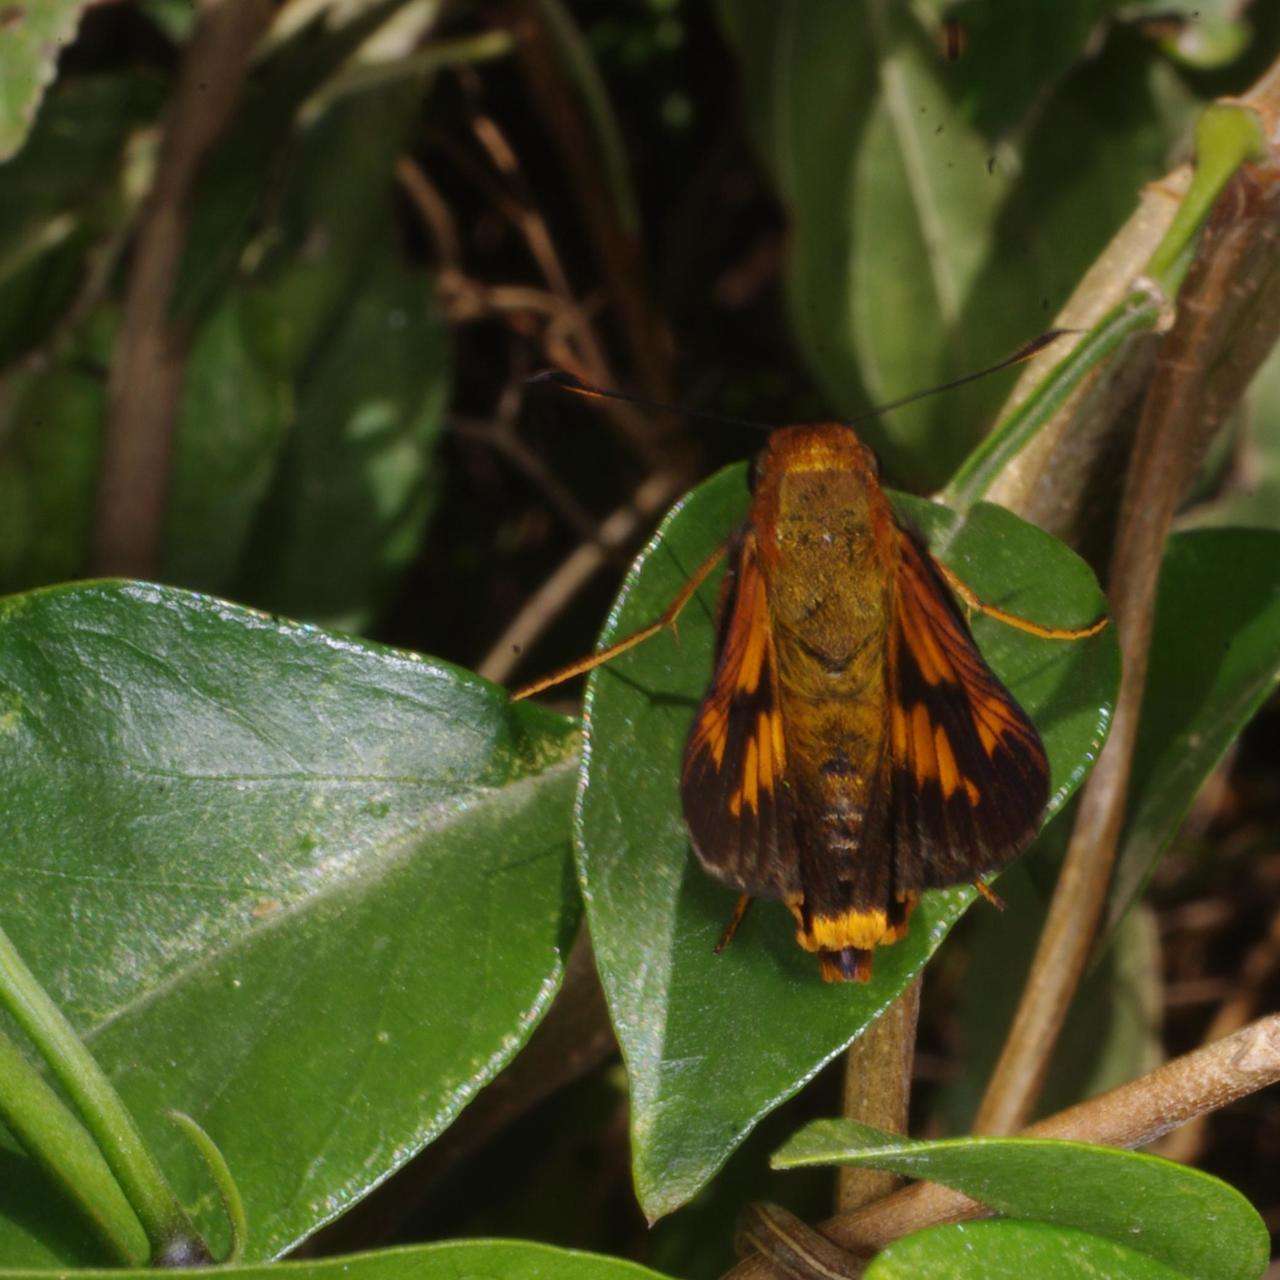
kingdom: Animalia
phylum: Arthropoda
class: Insecta
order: Lepidoptera
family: Hesperiidae
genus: Cephrenes
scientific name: Cephrenes augiades
